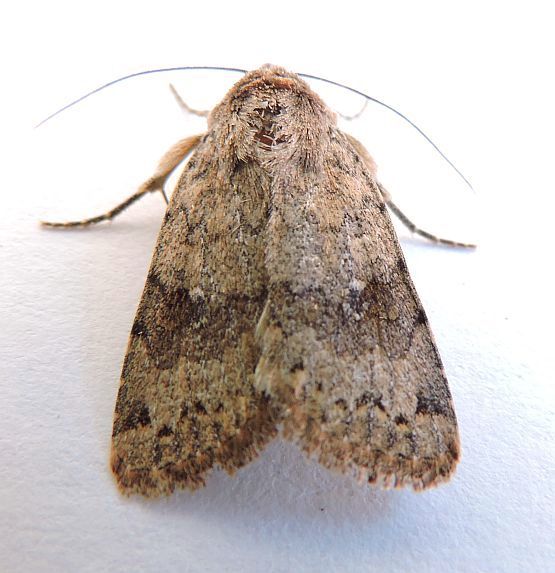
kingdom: Animalia
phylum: Arthropoda
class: Insecta
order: Lepidoptera
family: Noctuidae
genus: Nudorthodes
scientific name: Nudorthodes molino
